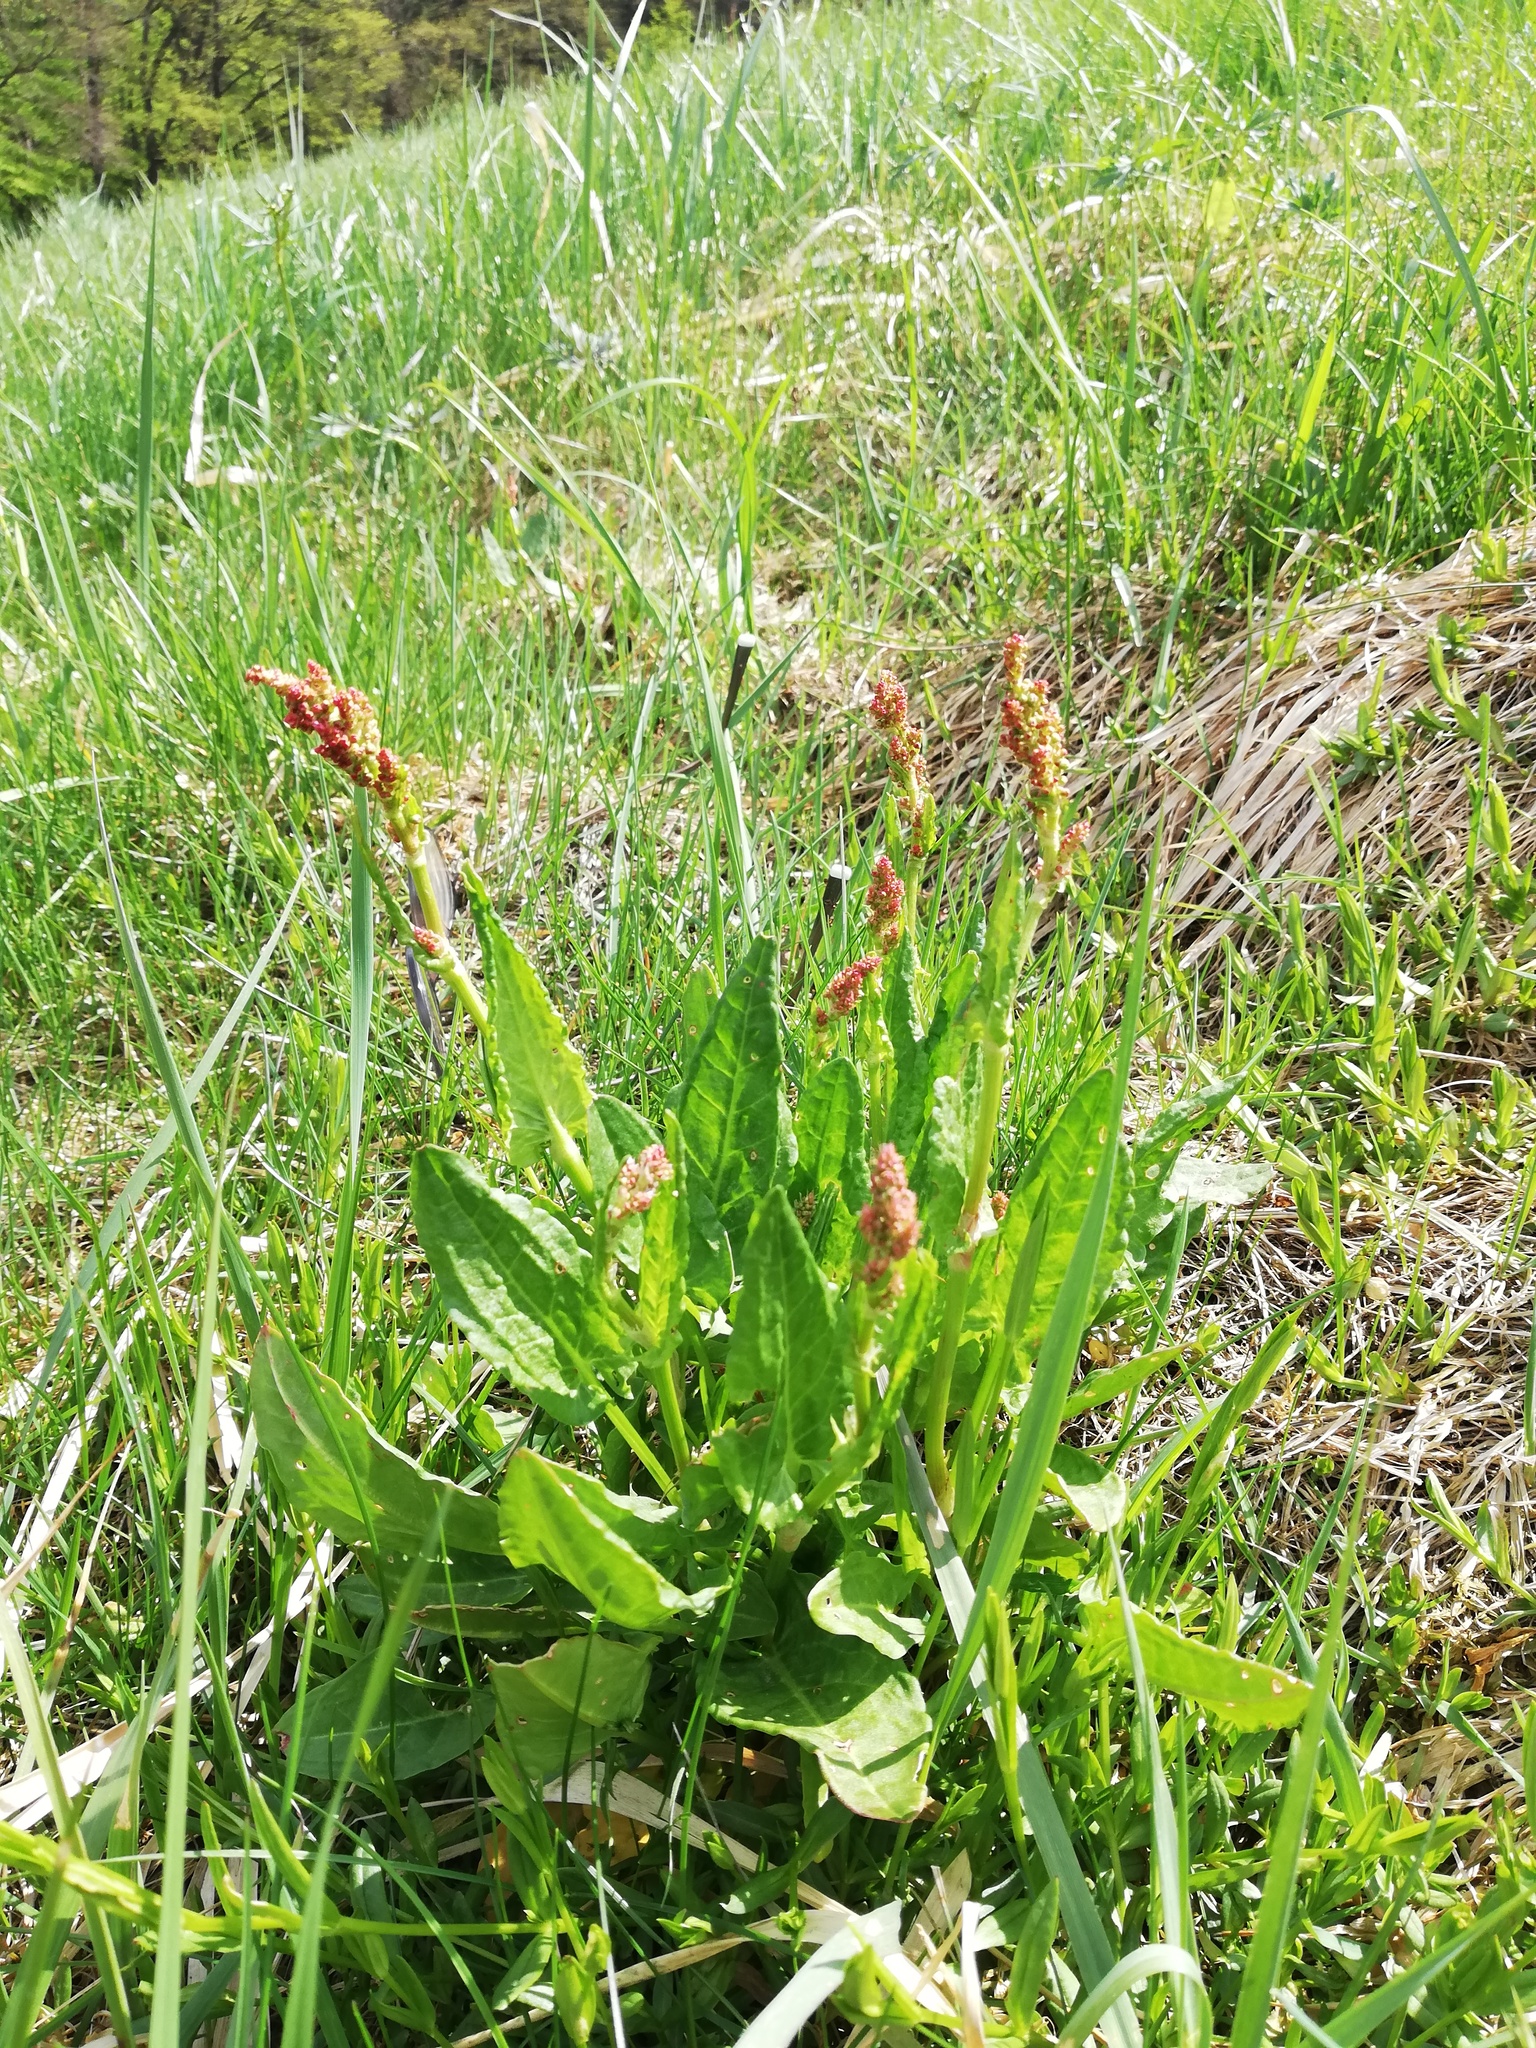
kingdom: Plantae
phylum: Tracheophyta
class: Magnoliopsida
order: Caryophyllales
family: Polygonaceae
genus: Rumex
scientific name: Rumex acetosa
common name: Garden sorrel
